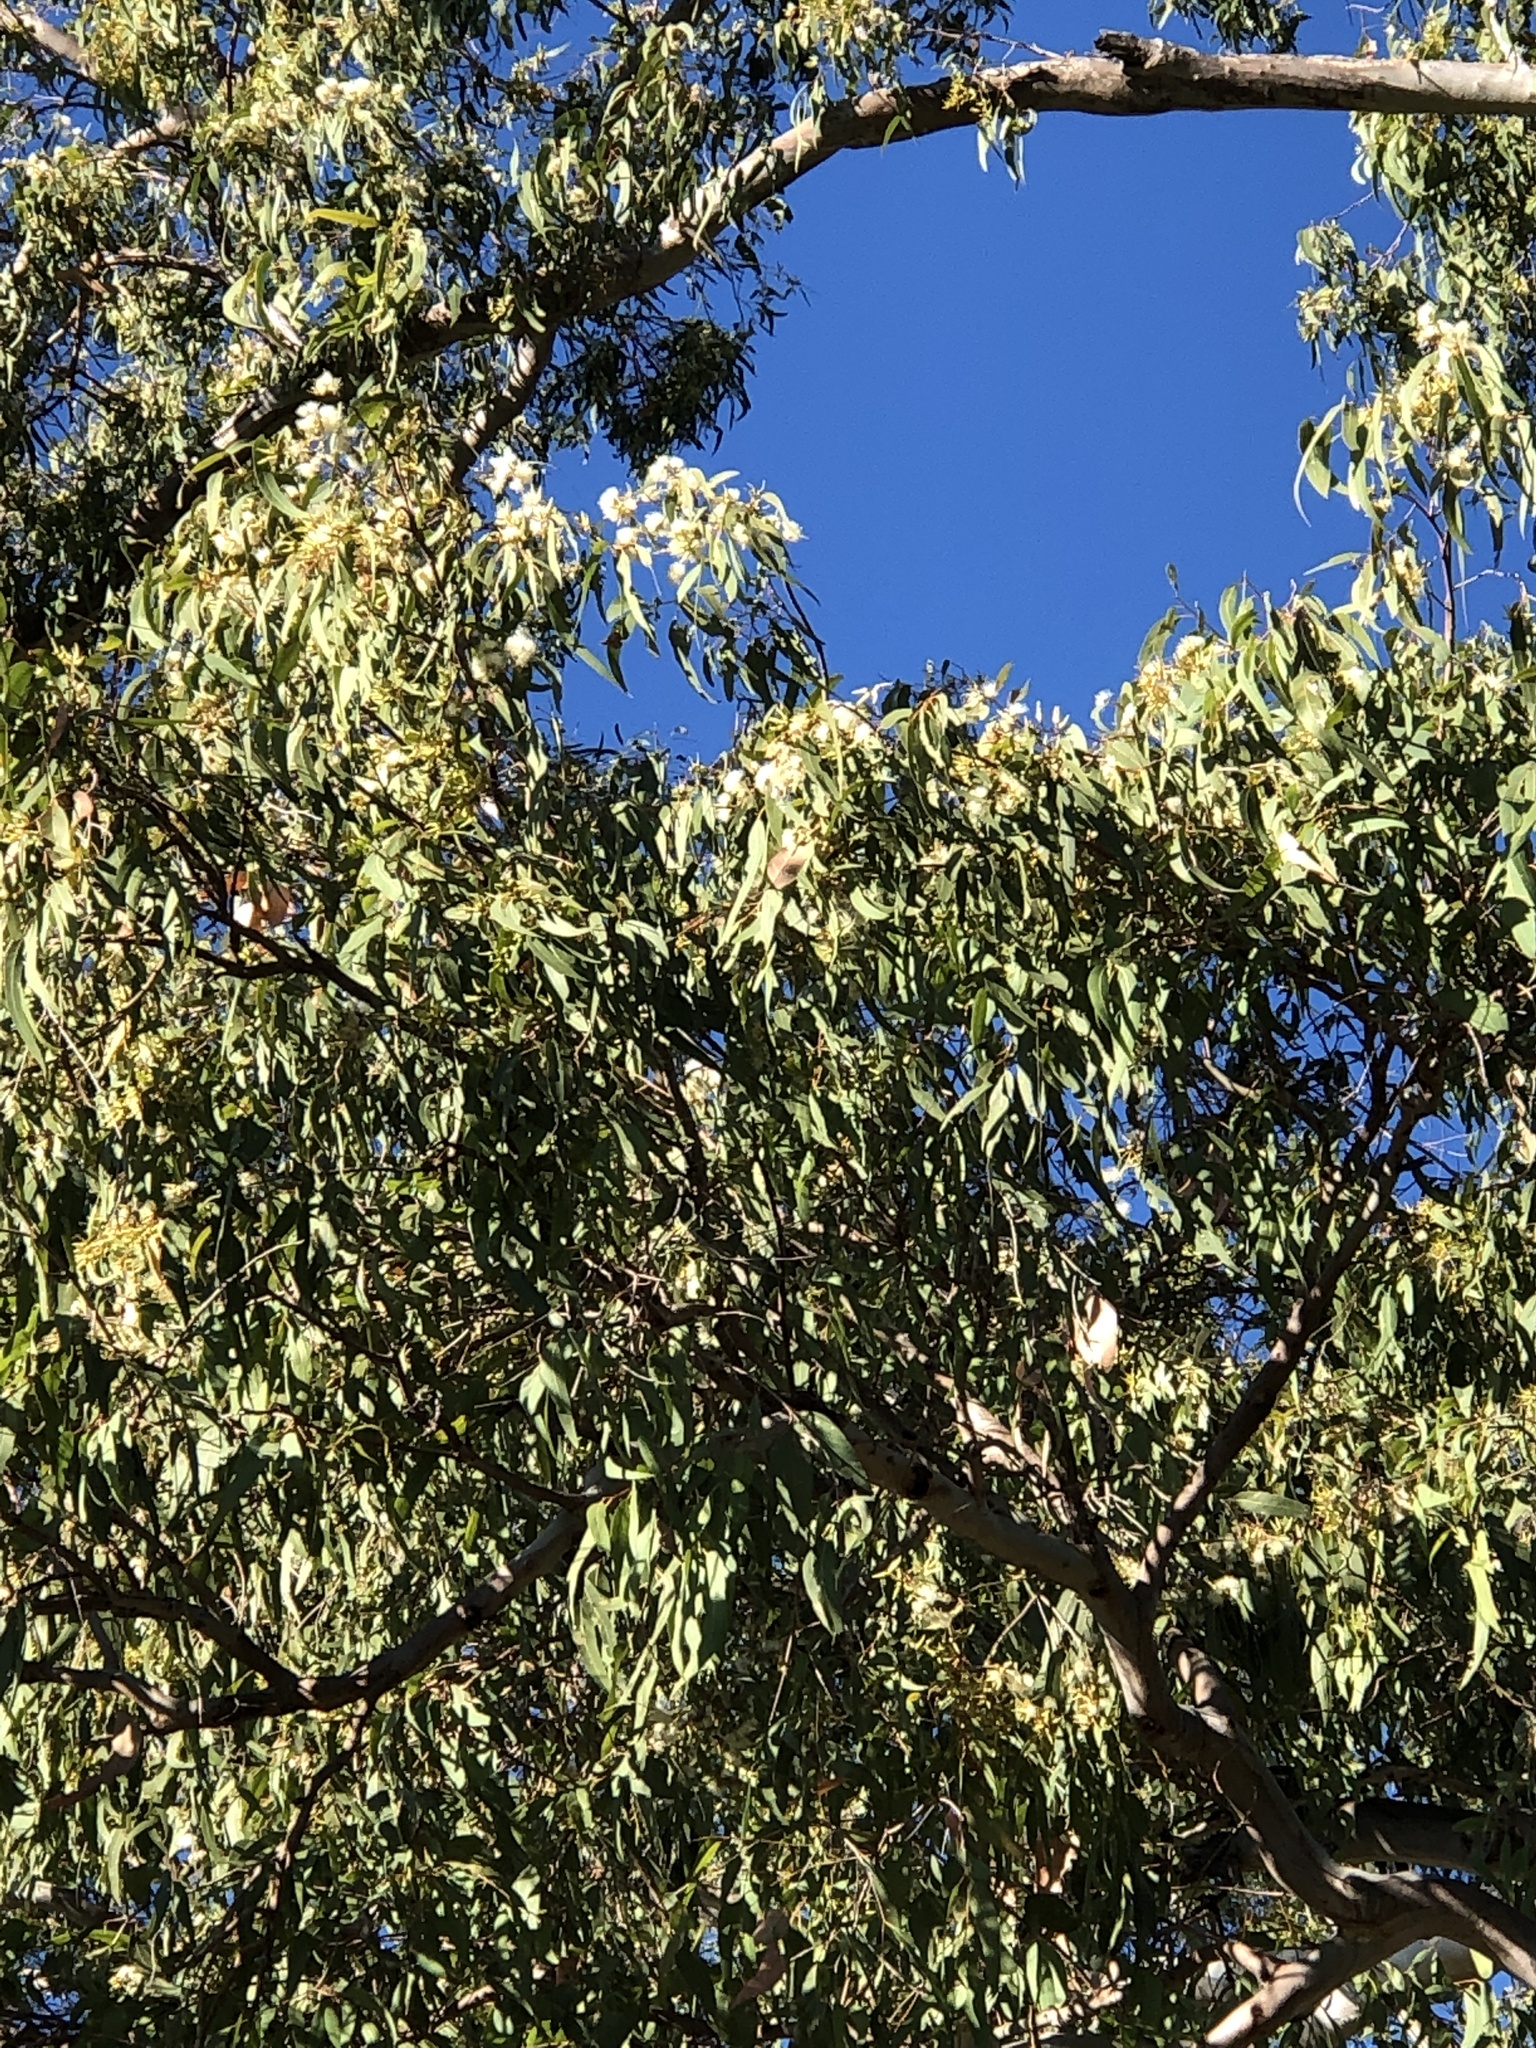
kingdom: Plantae
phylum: Tracheophyta
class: Magnoliopsida
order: Myrtales
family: Myrtaceae
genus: Eucalyptus
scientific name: Eucalyptus tereticornis
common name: Forest redgum
